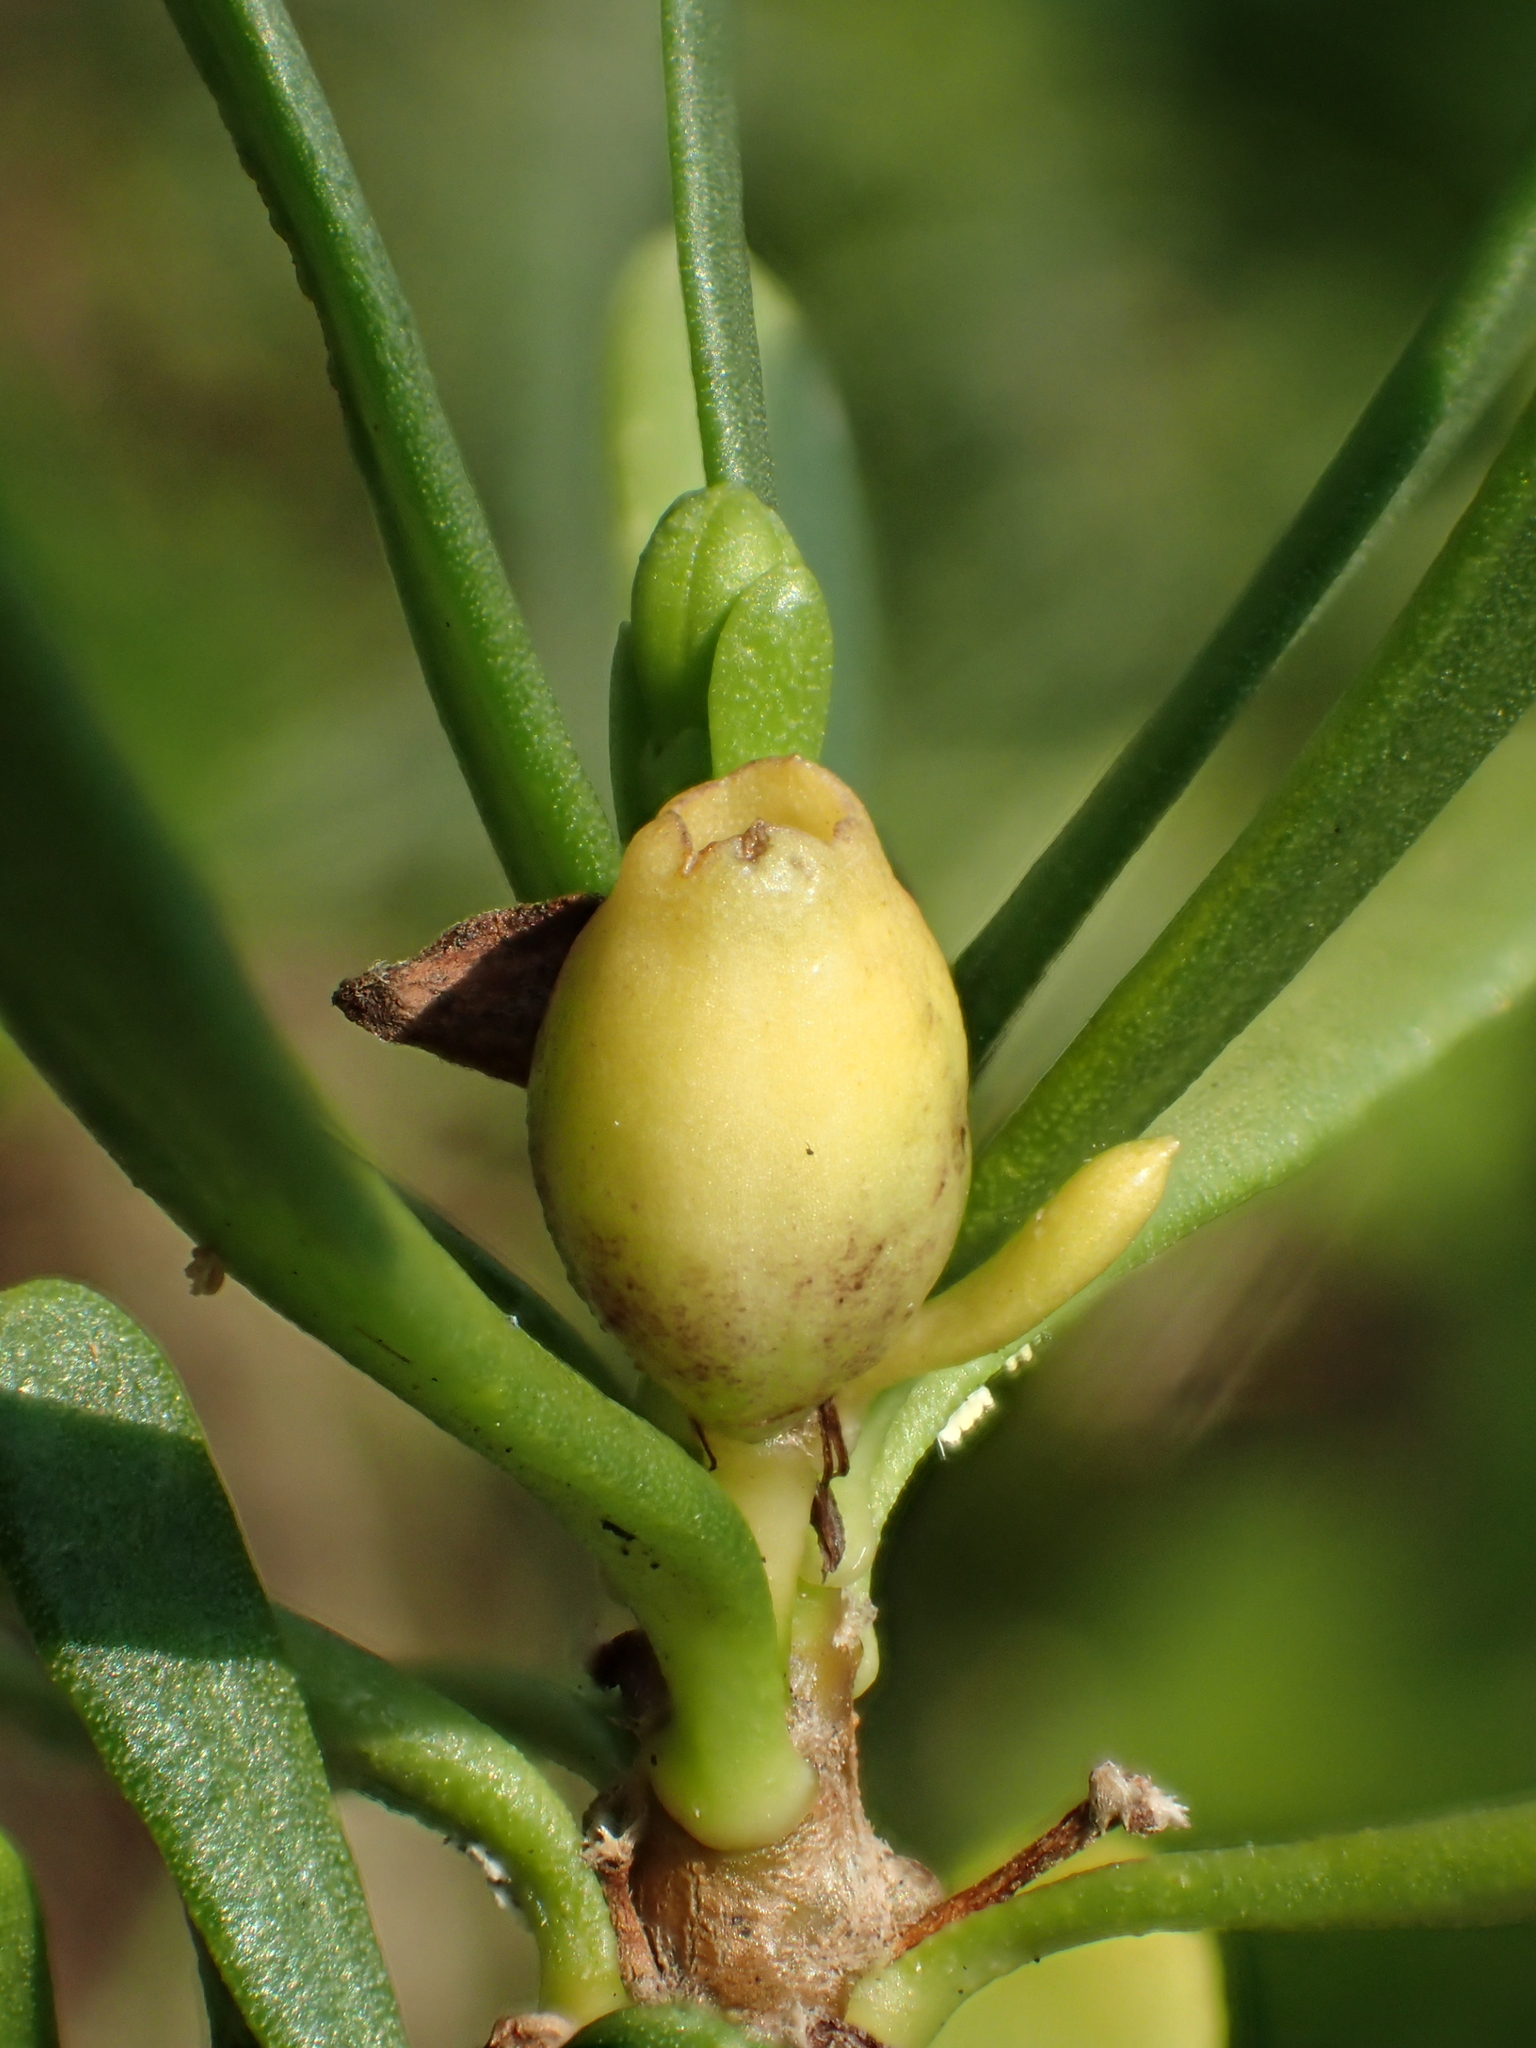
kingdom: Plantae
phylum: Tracheophyta
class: Magnoliopsida
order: Asterales
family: Goodeniaceae
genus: Scaevola
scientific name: Scaevola hainanensis
